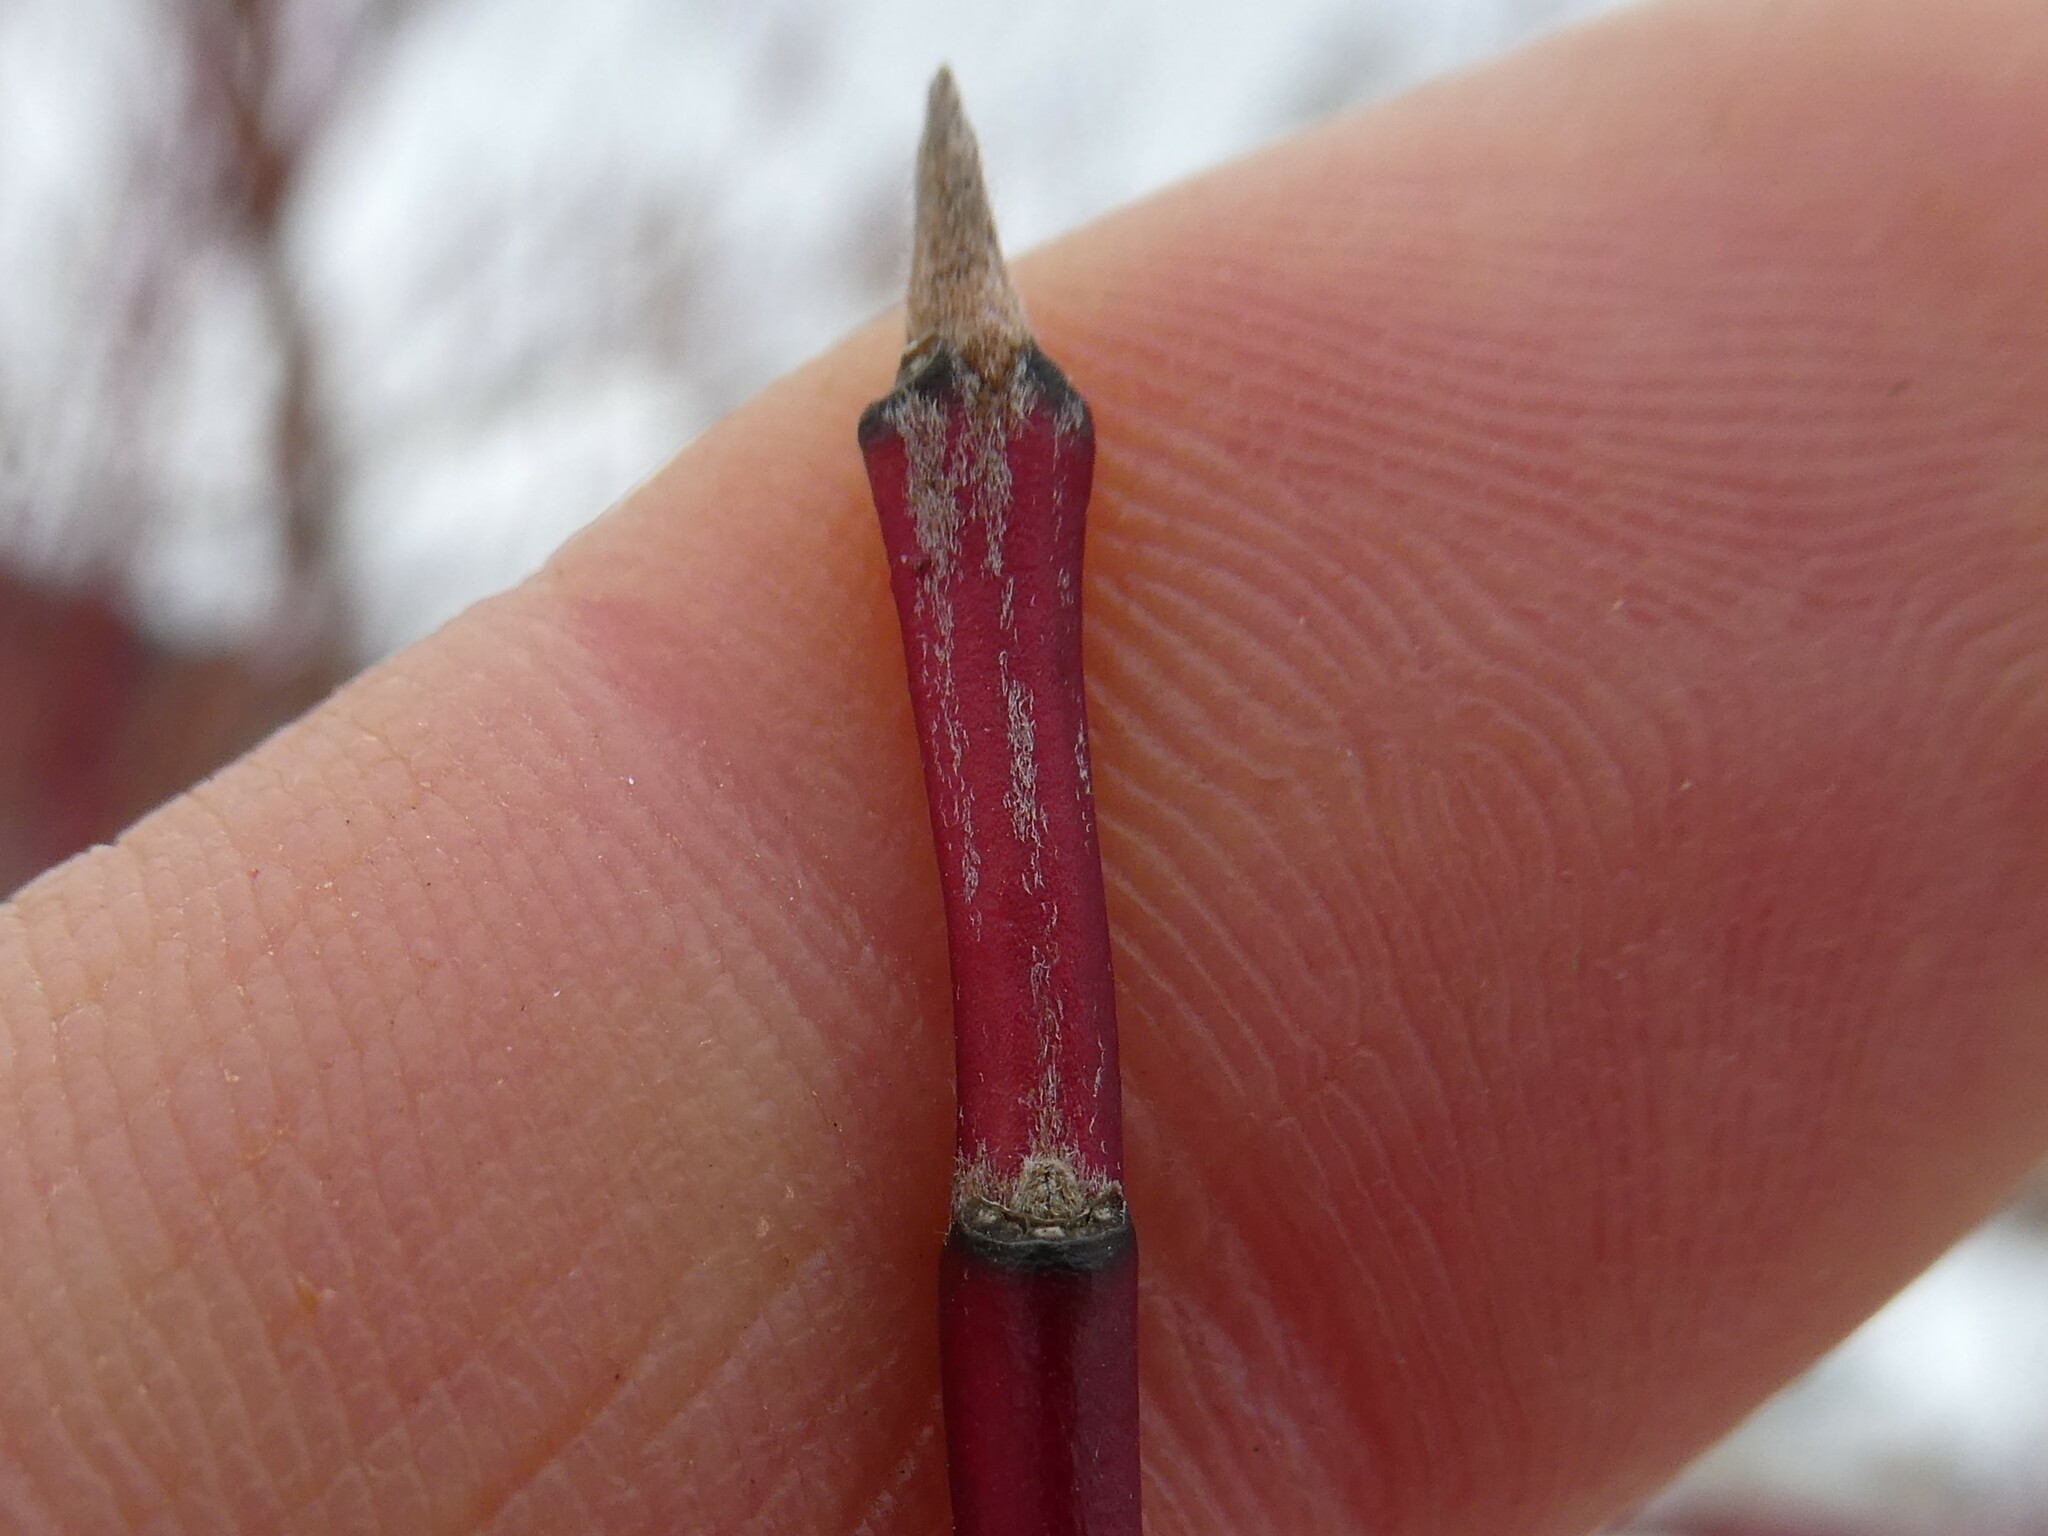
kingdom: Plantae
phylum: Tracheophyta
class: Magnoliopsida
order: Cornales
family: Cornaceae
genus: Cornus
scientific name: Cornus amomum
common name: Silky dogwood
